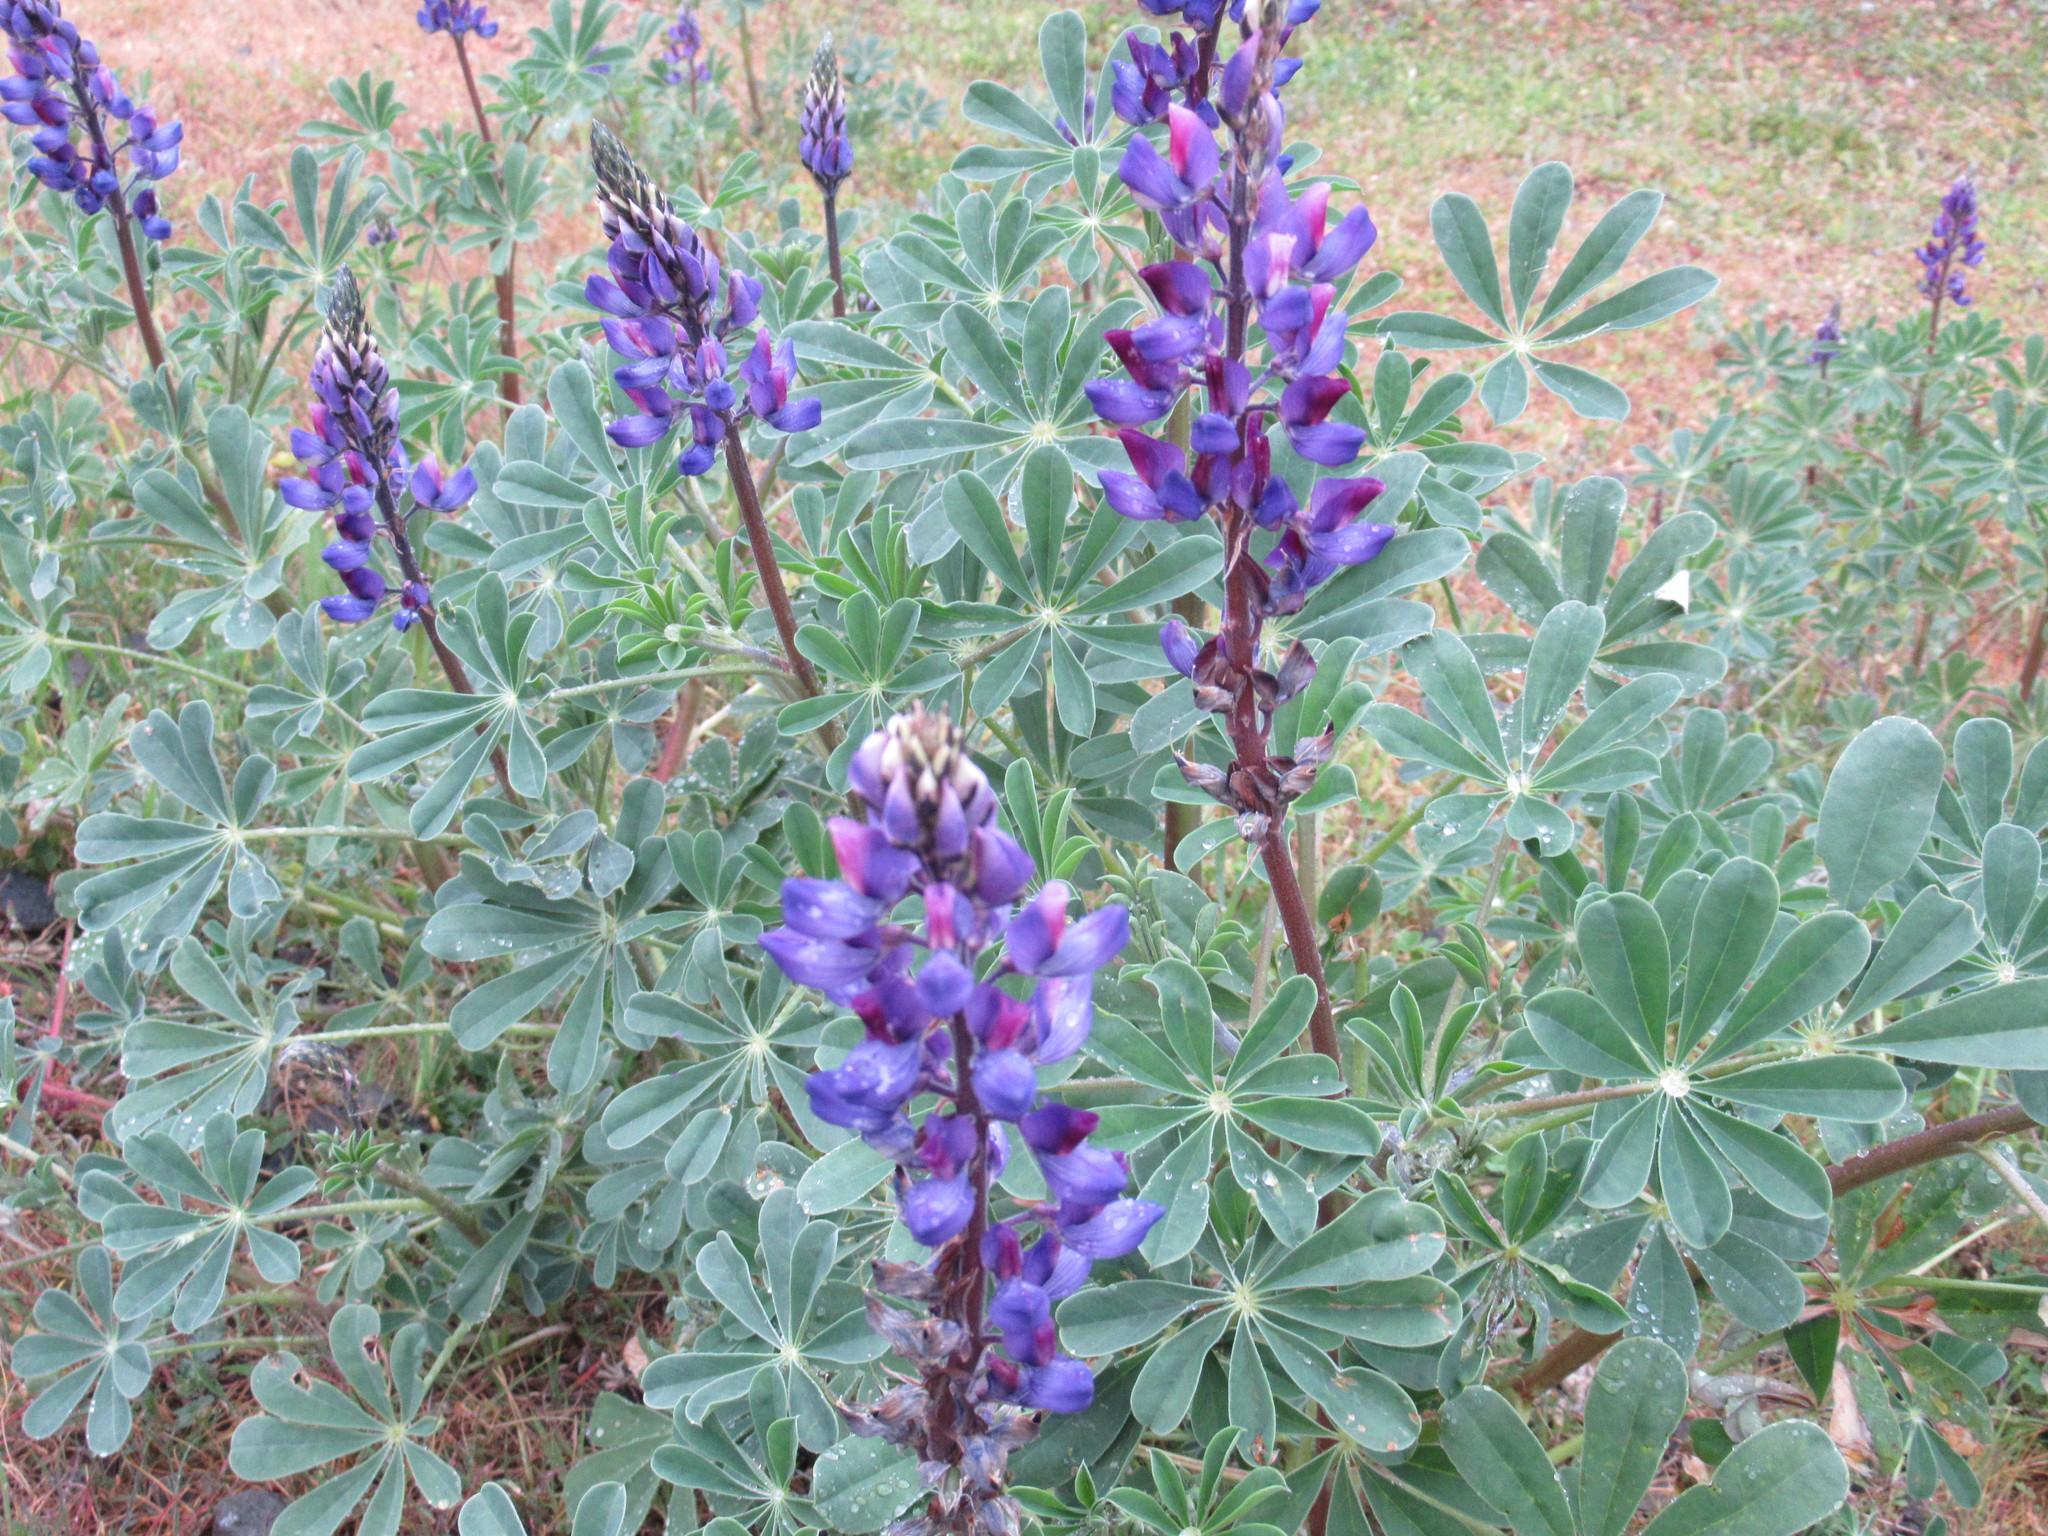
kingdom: Plantae
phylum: Tracheophyta
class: Magnoliopsida
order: Fabales
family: Fabaceae
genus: Lupinus
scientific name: Lupinus succulentus
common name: Arroyo lupine
